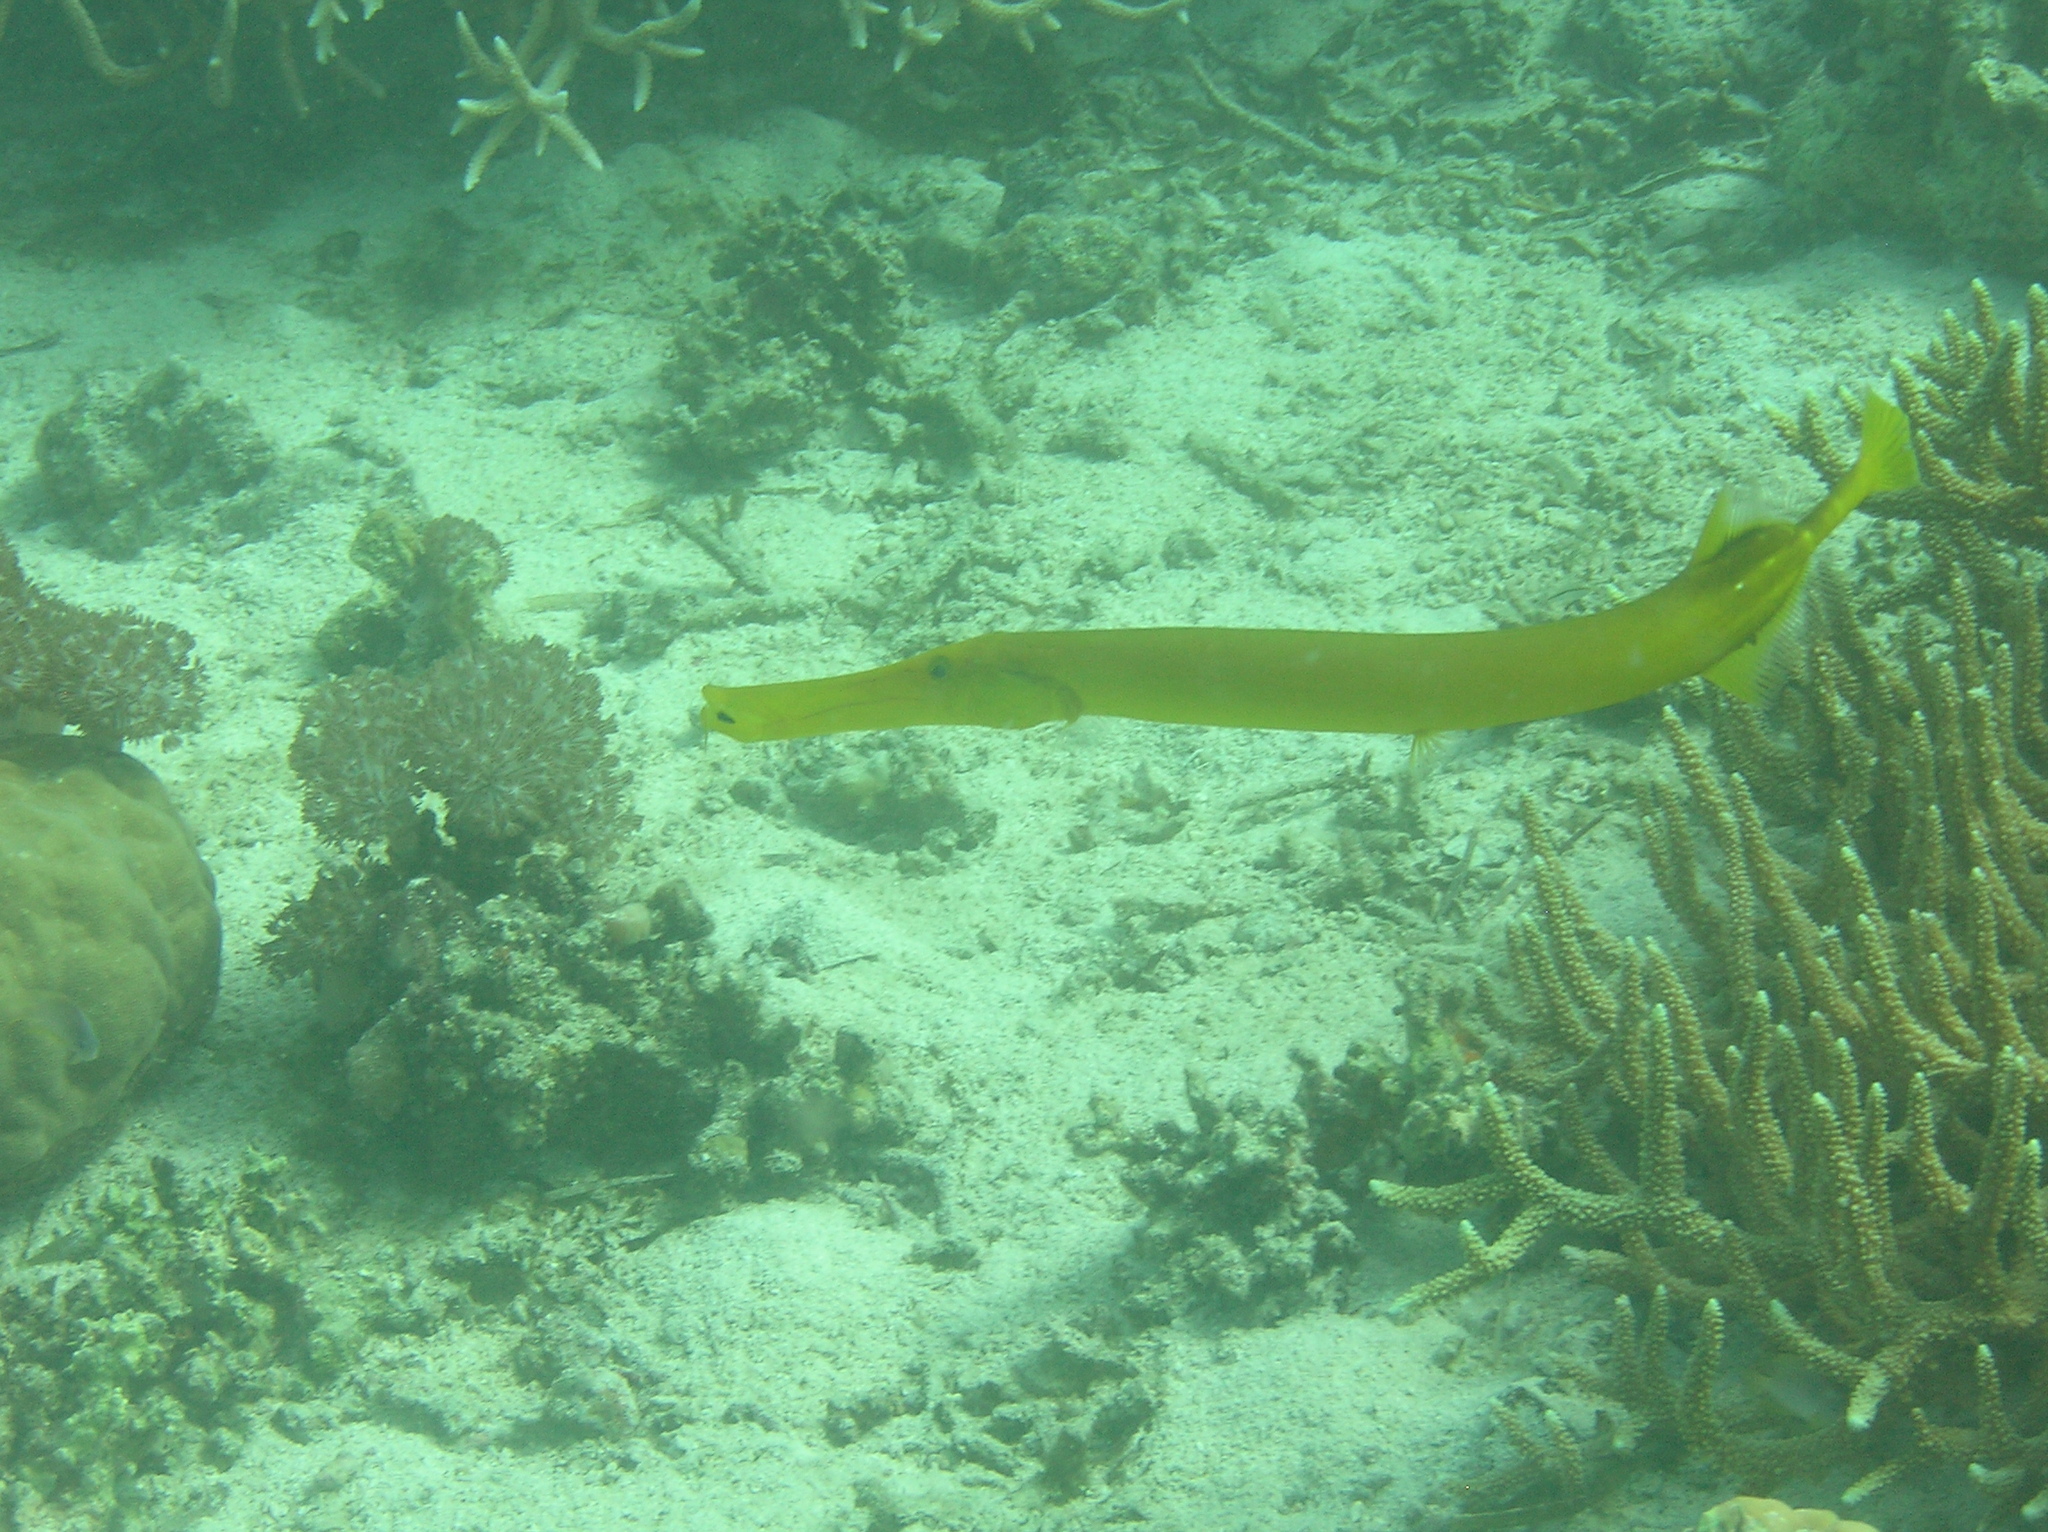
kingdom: Animalia
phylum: Chordata
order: Syngnathiformes
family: Aulostomidae
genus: Aulostomus
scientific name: Aulostomus chinensis
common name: Chinese trumpetfish
